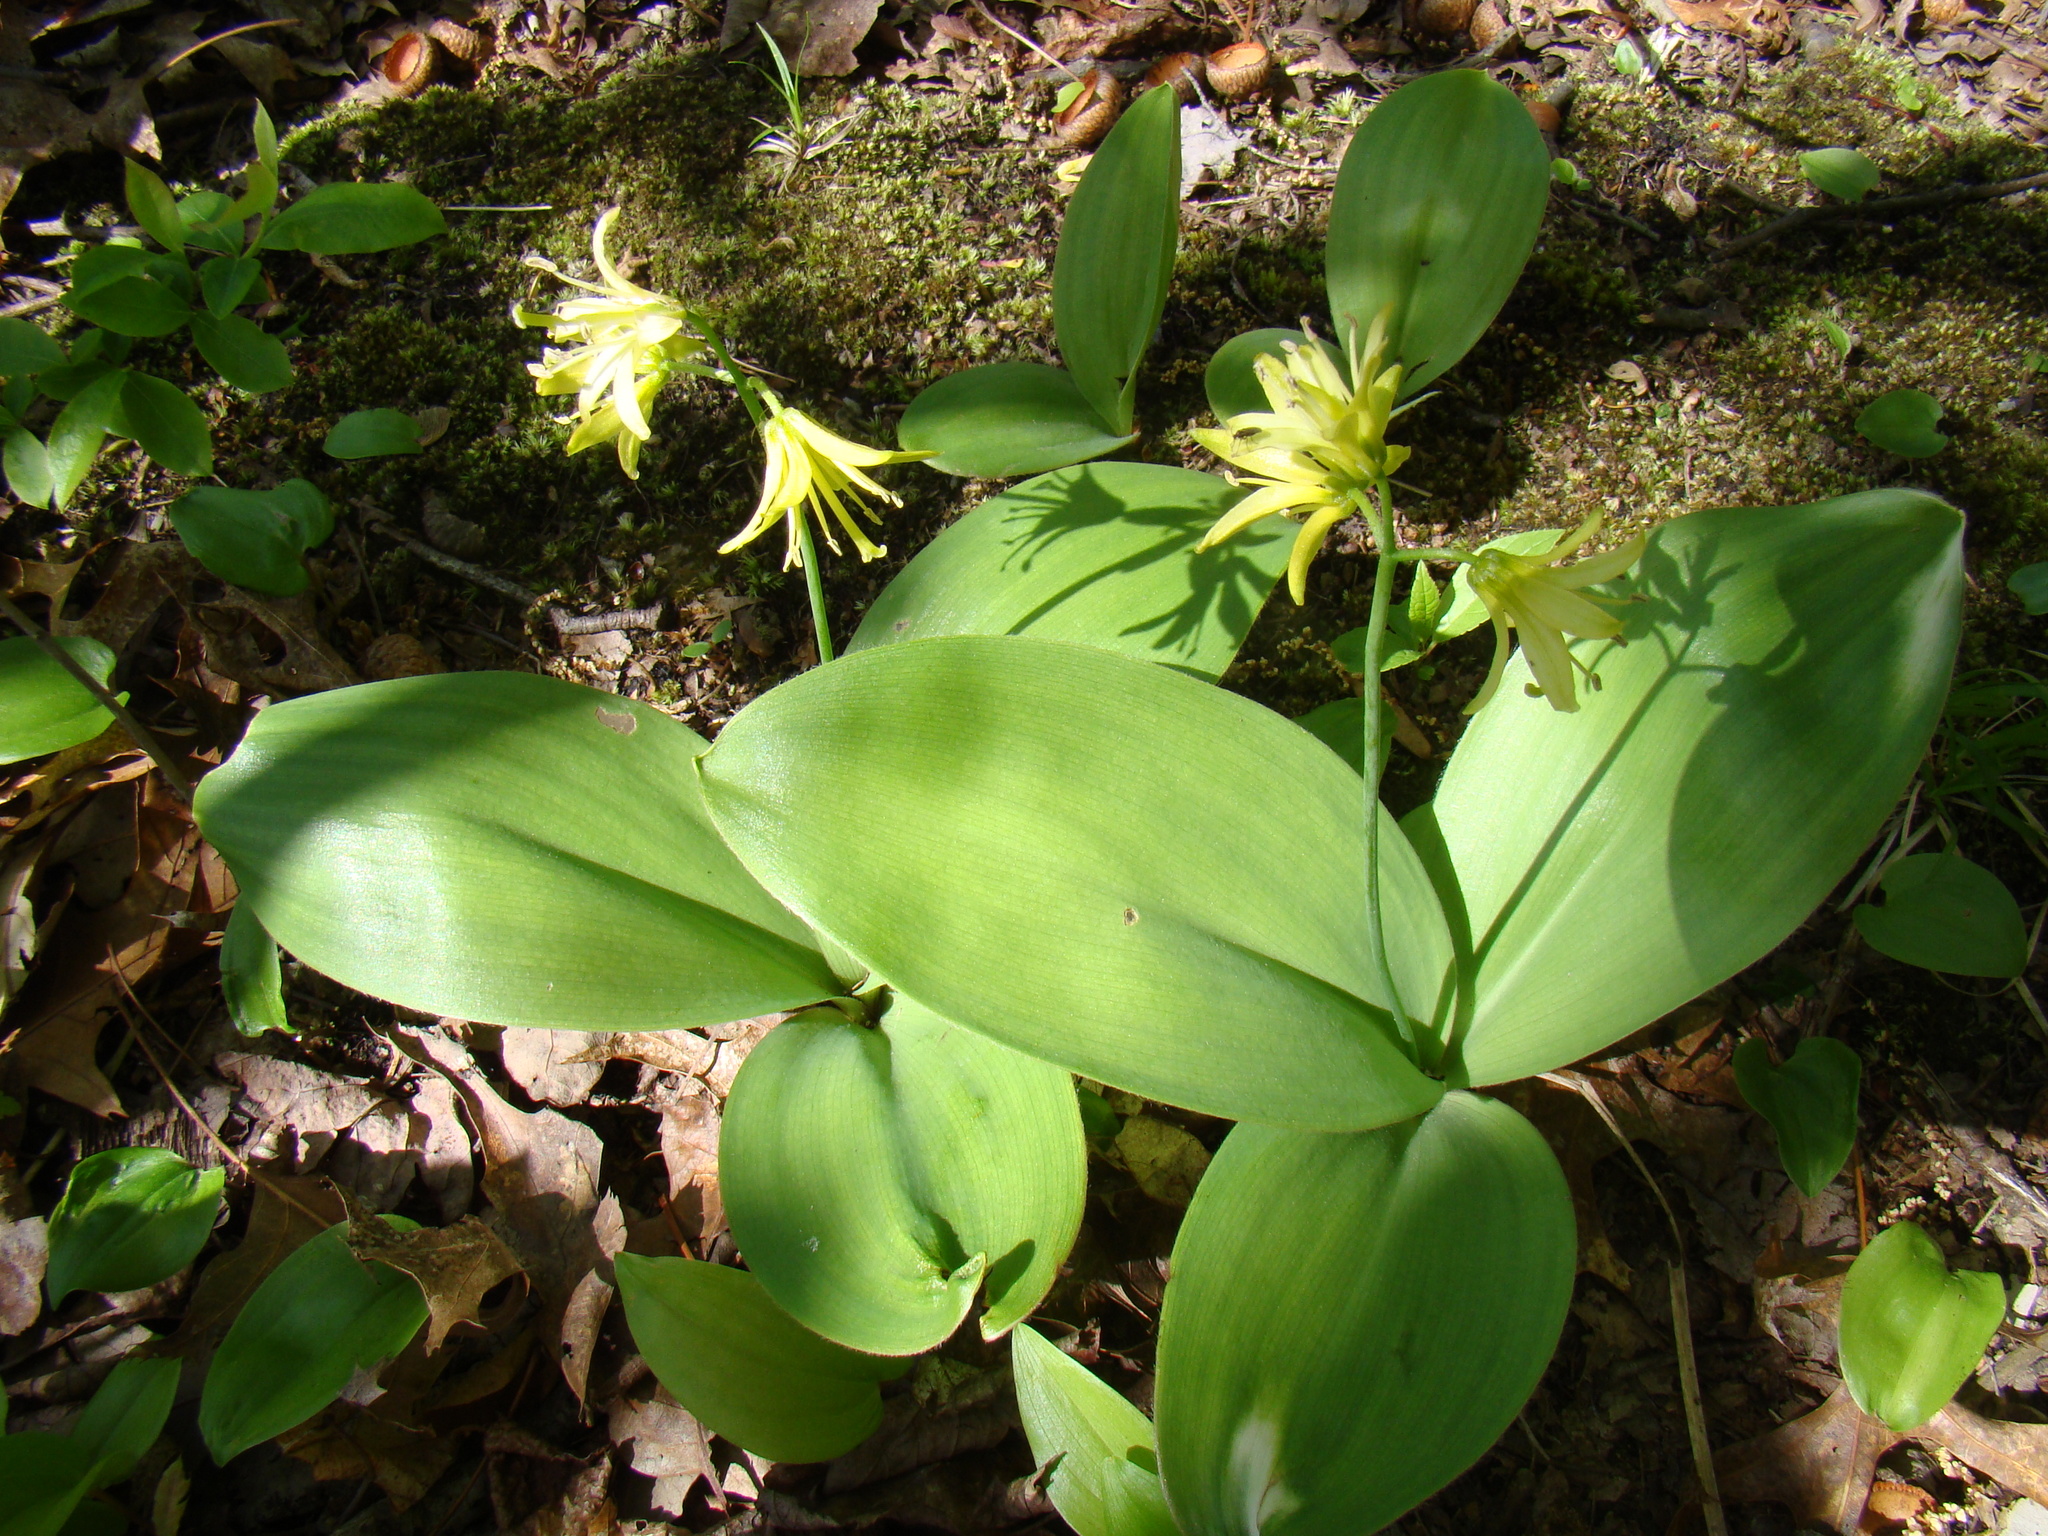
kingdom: Plantae
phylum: Tracheophyta
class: Liliopsida
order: Liliales
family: Liliaceae
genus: Clintonia
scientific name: Clintonia borealis
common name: Yellow clintonia
